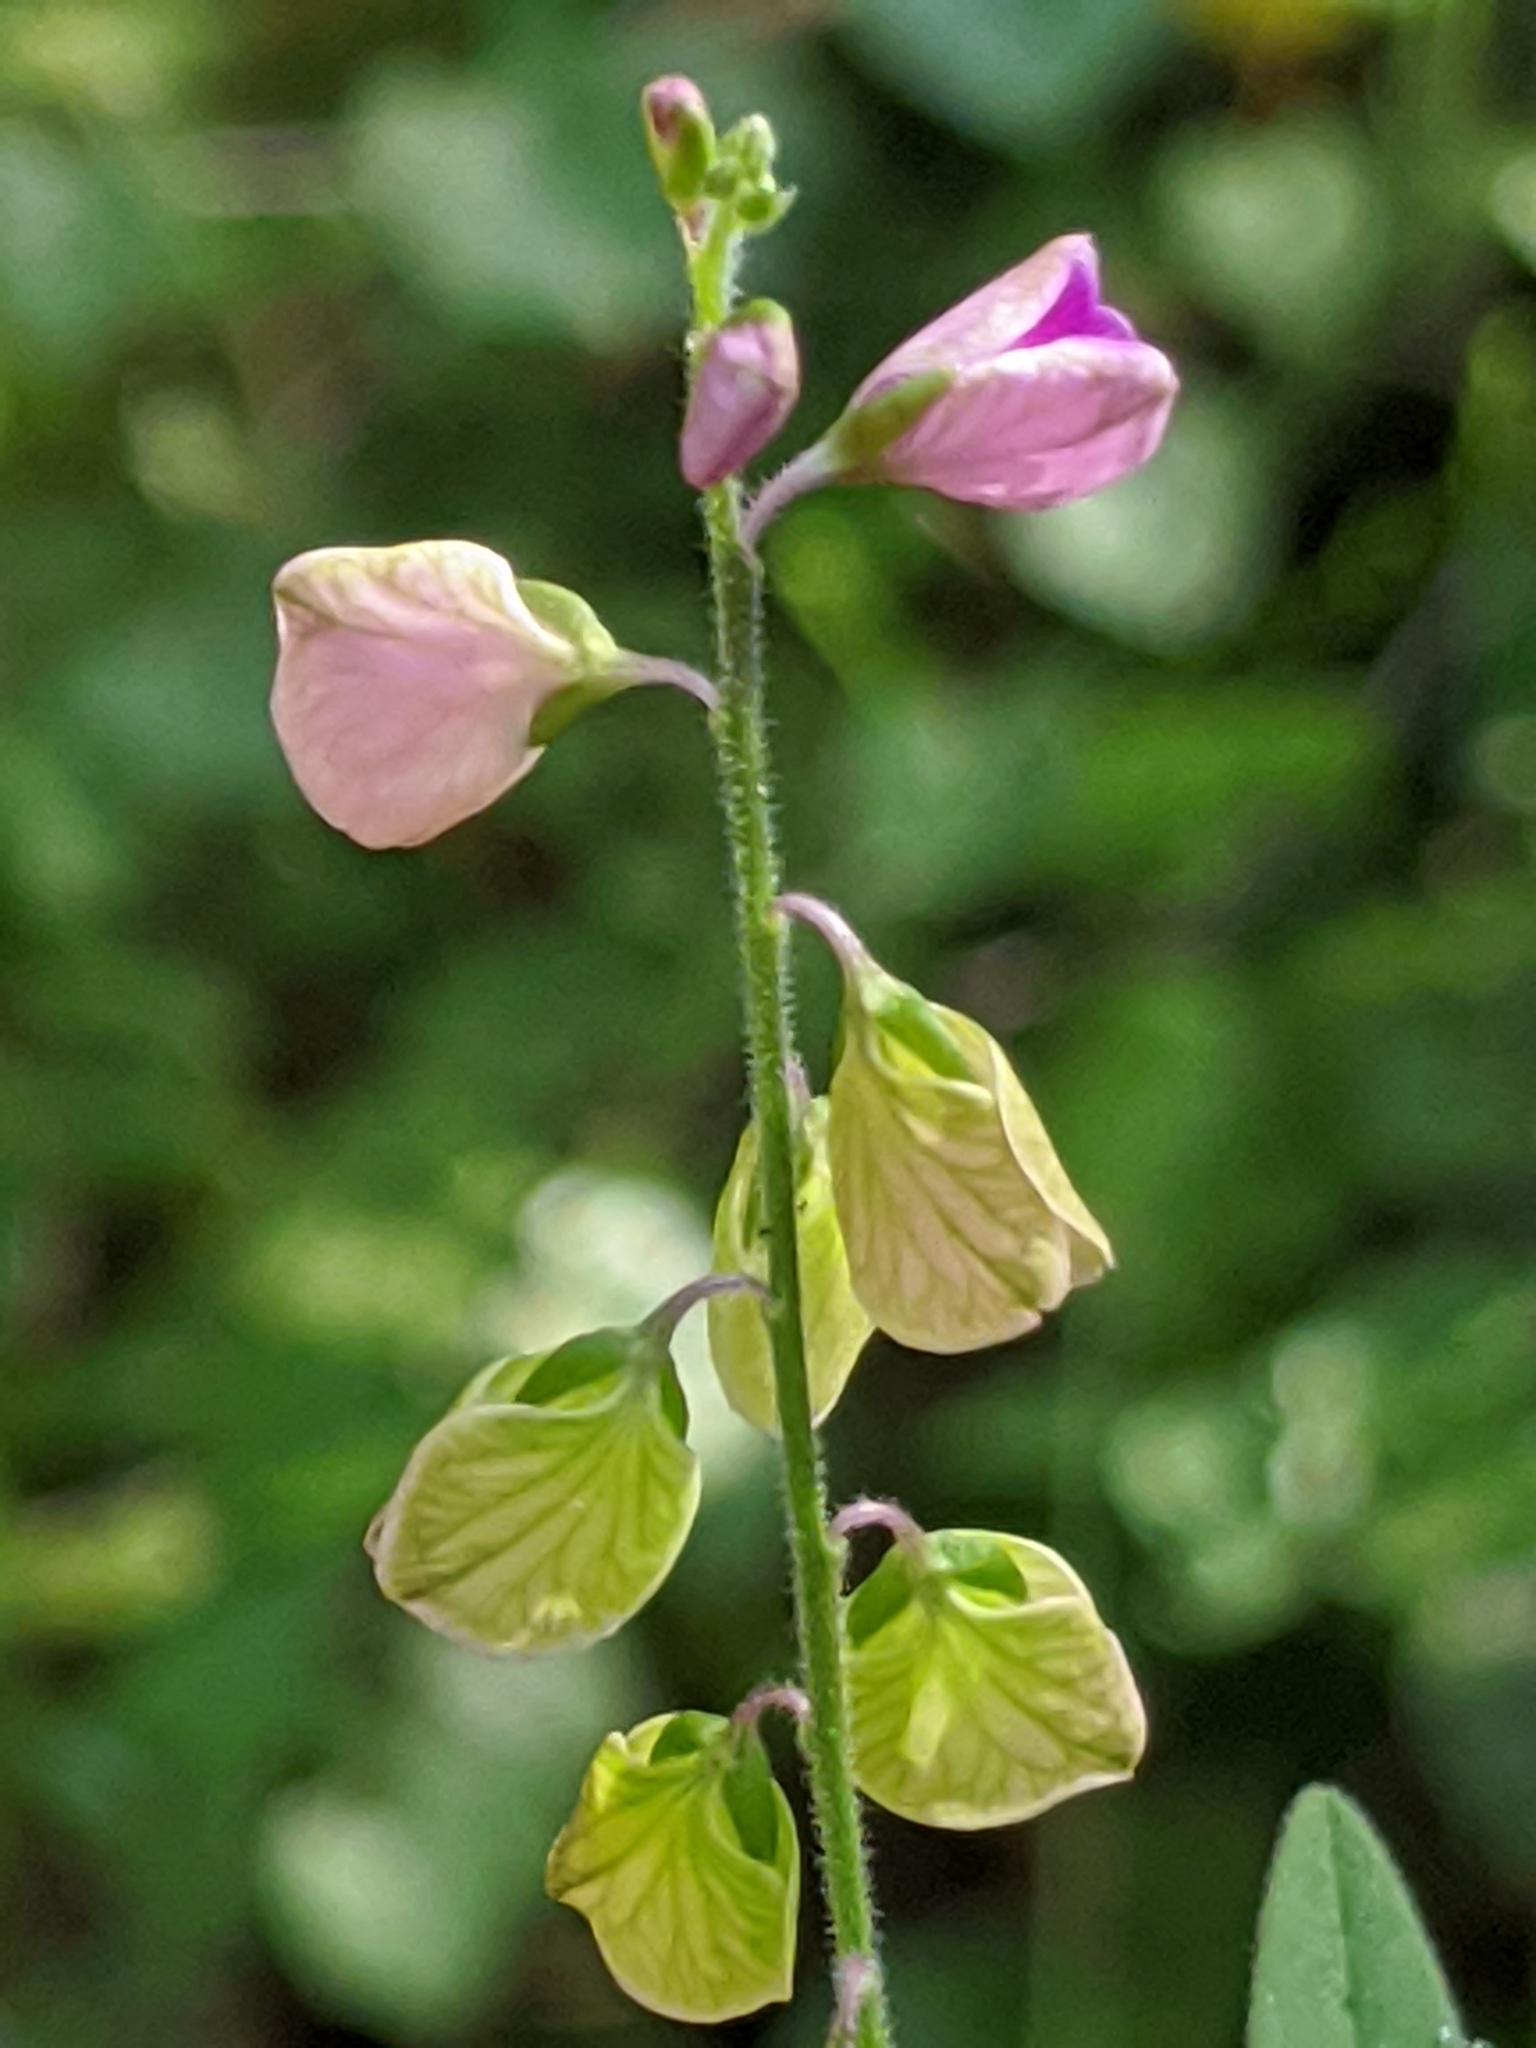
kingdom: Plantae
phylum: Tracheophyta
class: Magnoliopsida
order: Fabales
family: Polygalaceae
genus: Asemeia
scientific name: Asemeia grandiflora
